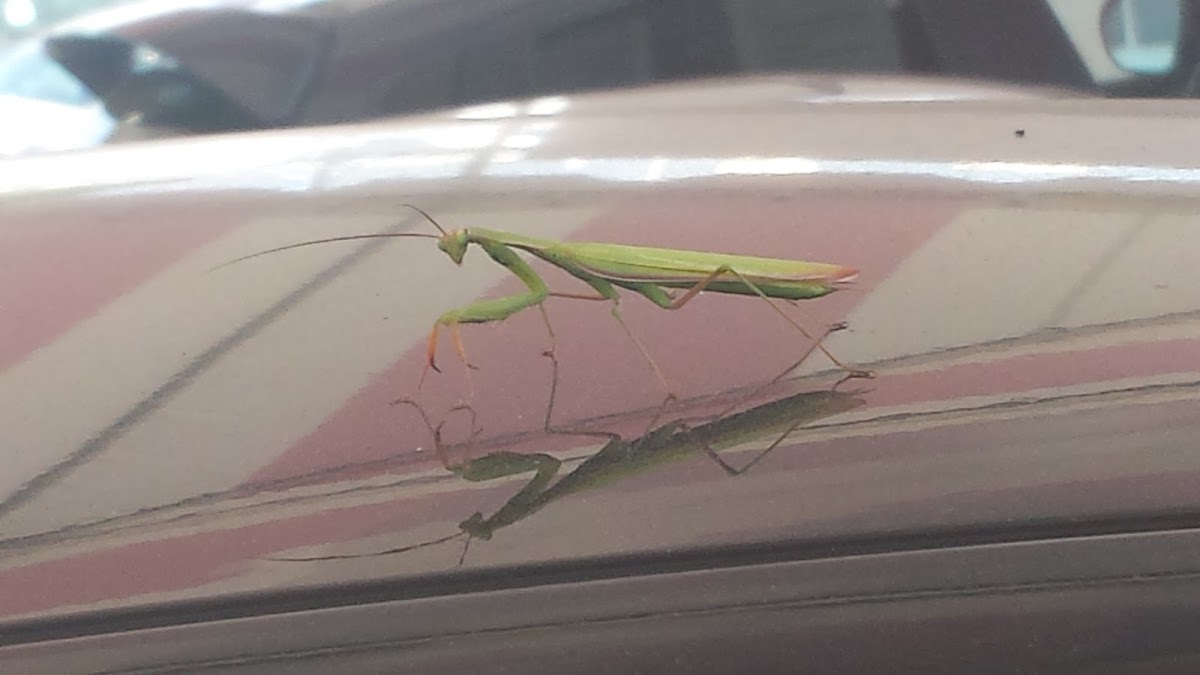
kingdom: Animalia
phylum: Arthropoda
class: Insecta
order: Mantodea
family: Mantidae
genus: Mantis
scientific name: Mantis religiosa
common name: Praying mantis
